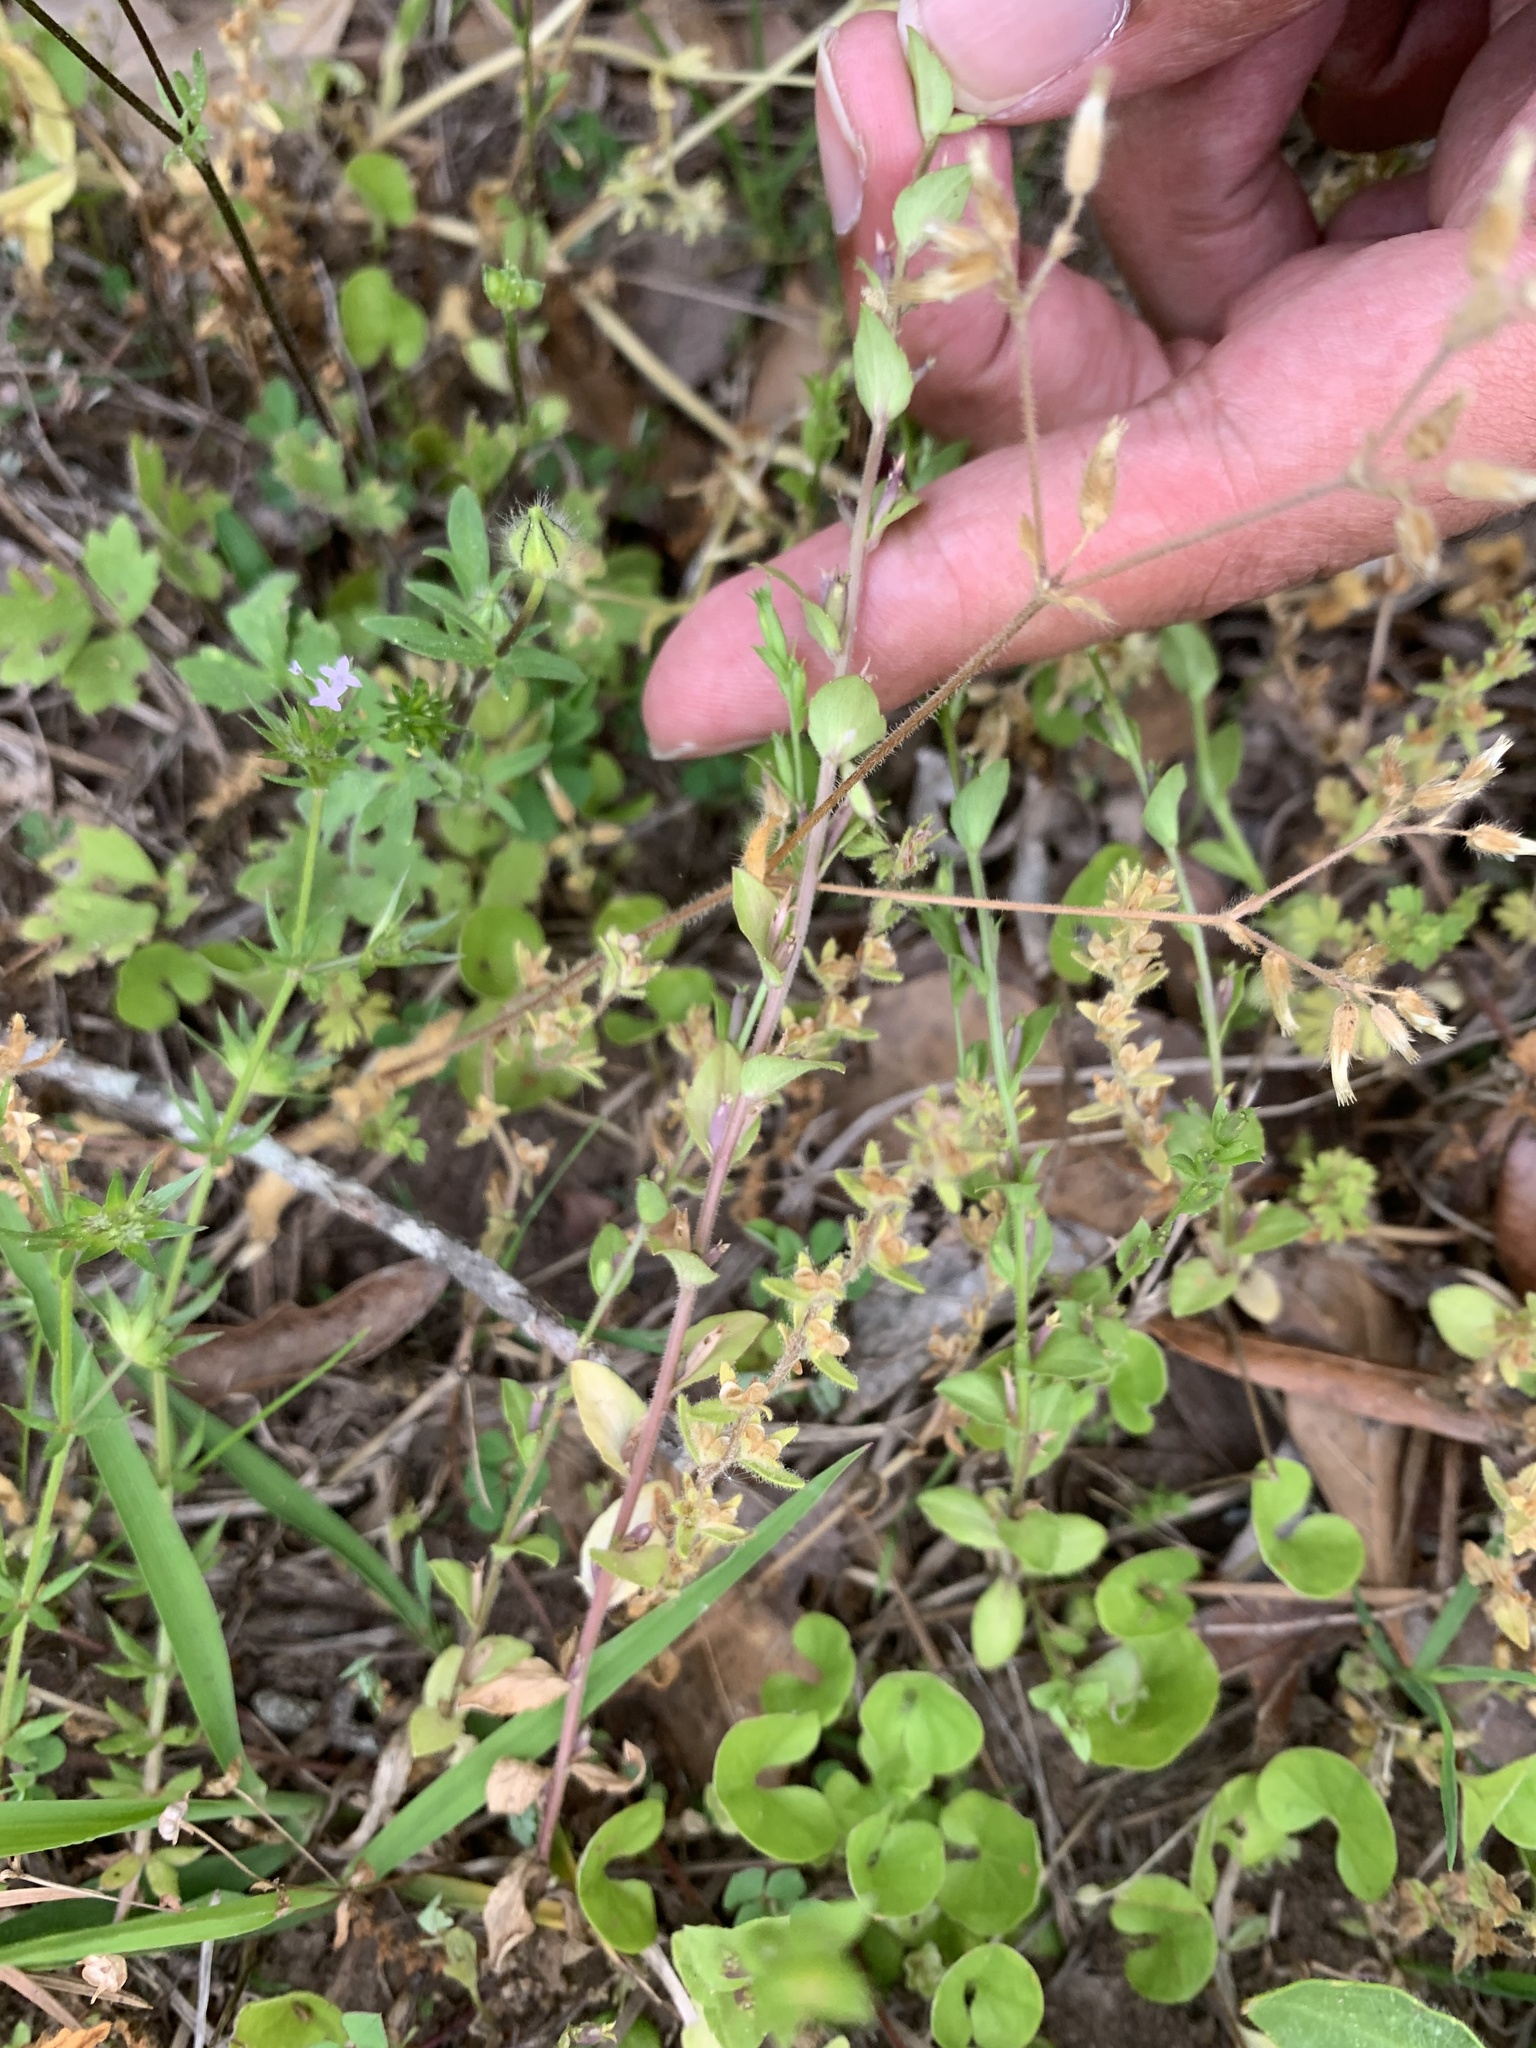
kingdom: Plantae
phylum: Tracheophyta
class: Magnoliopsida
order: Asterales
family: Campanulaceae
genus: Triodanis
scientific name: Triodanis biflora
